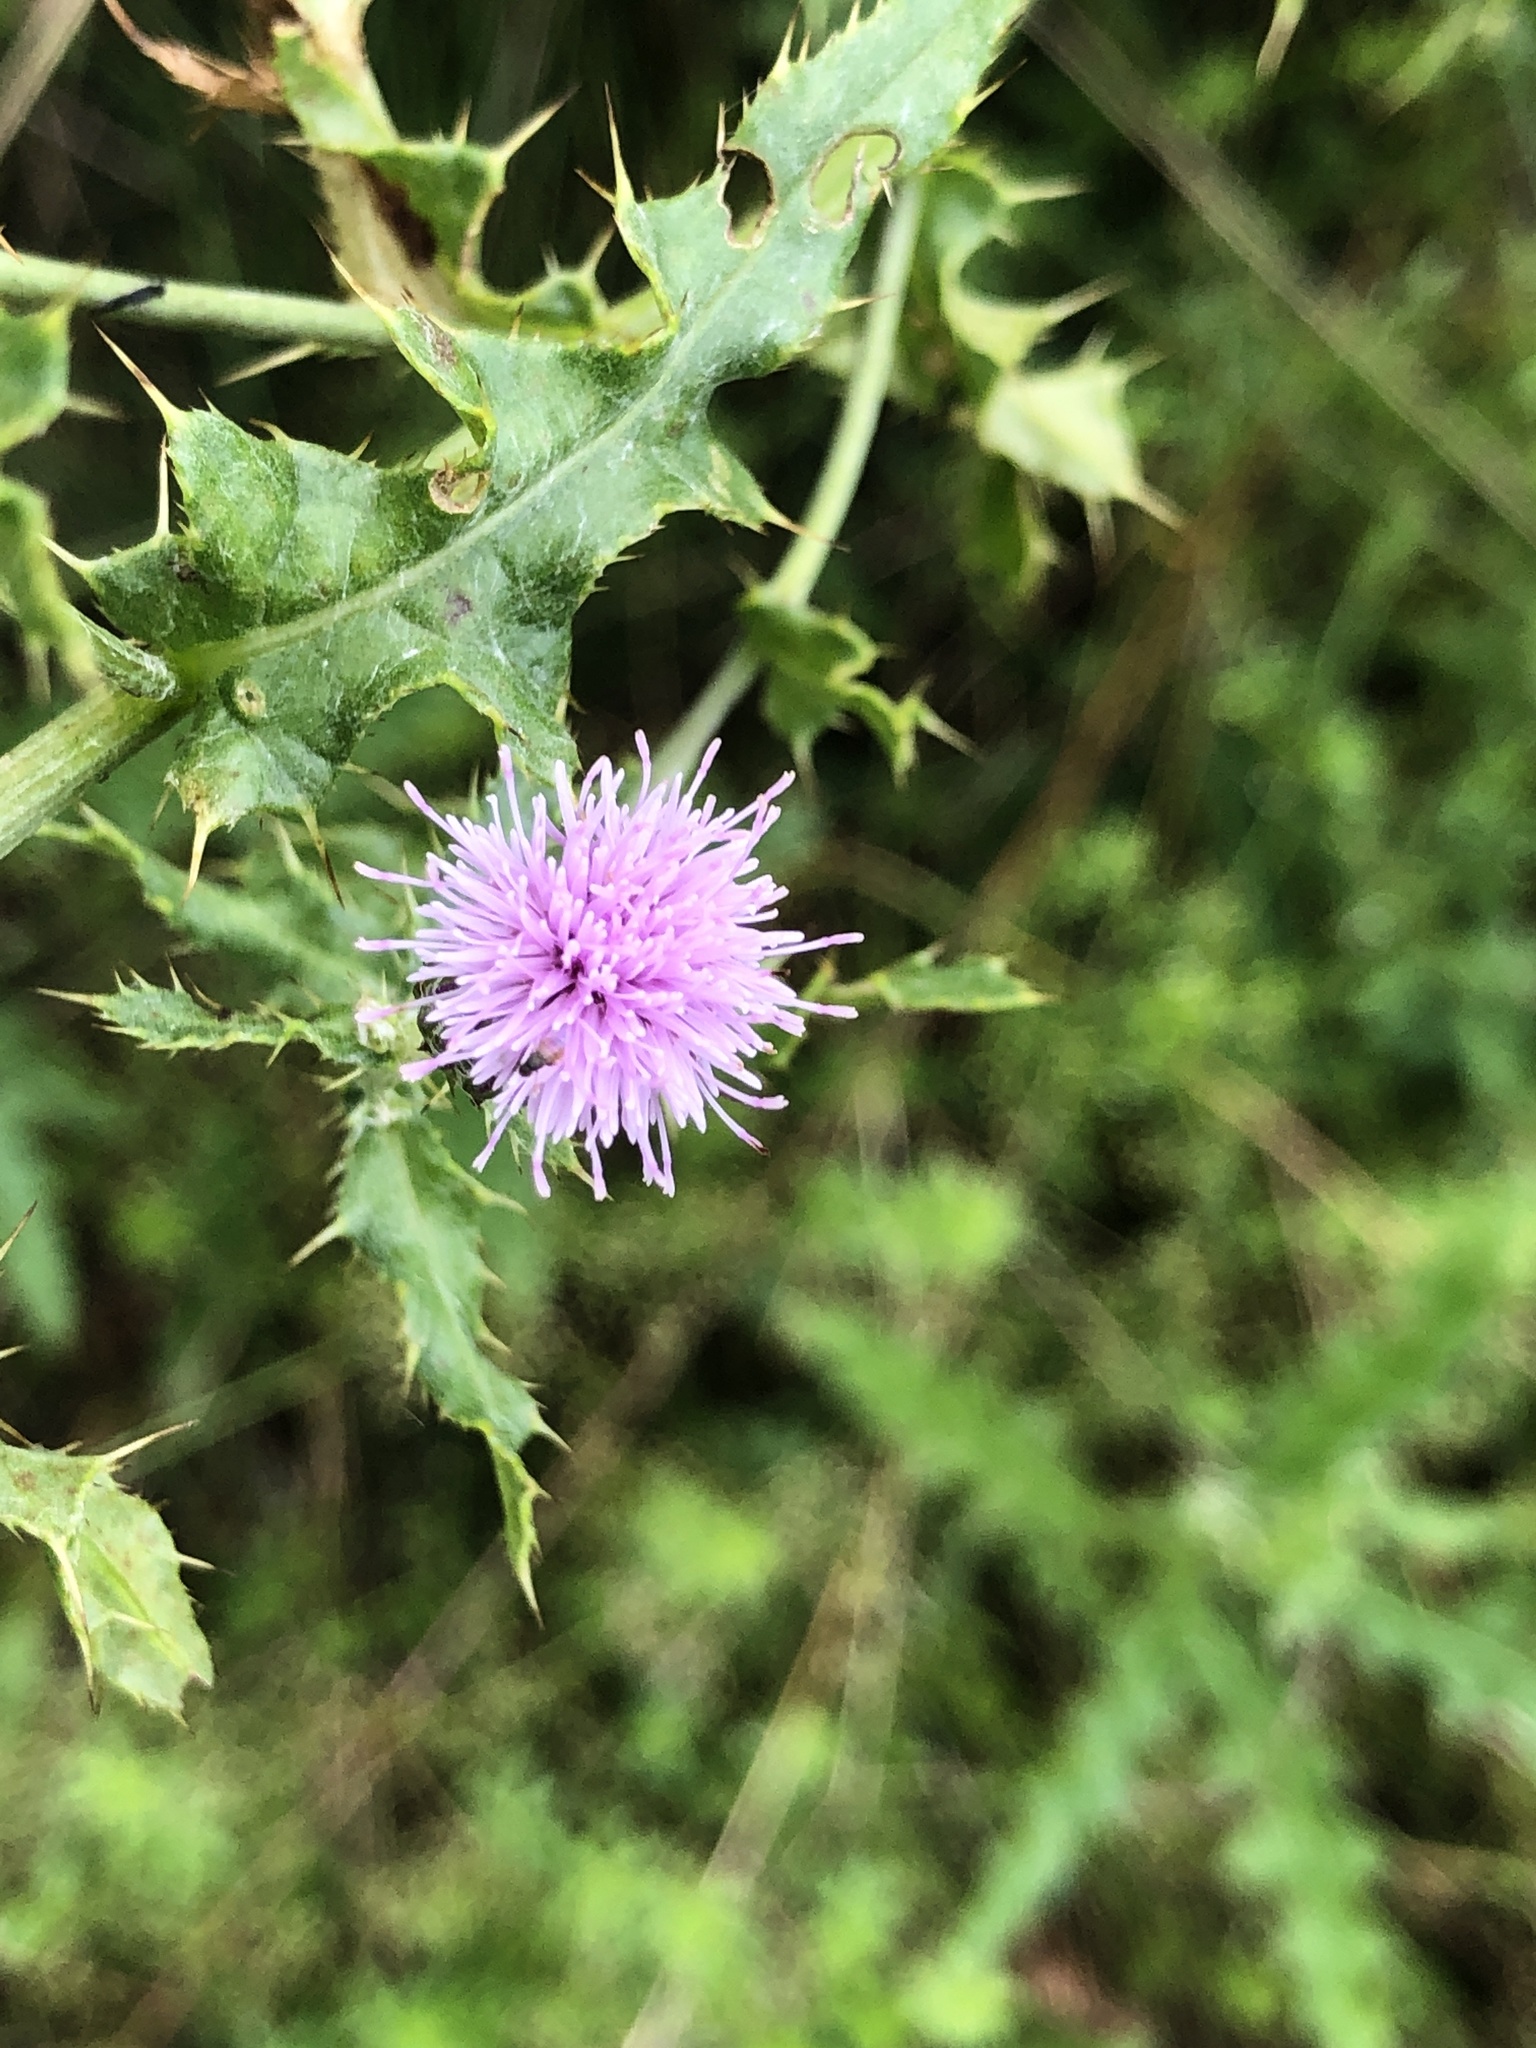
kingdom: Plantae
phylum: Tracheophyta
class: Magnoliopsida
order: Asterales
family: Asteraceae
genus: Cirsium
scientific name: Cirsium arvense
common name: Creeping thistle
